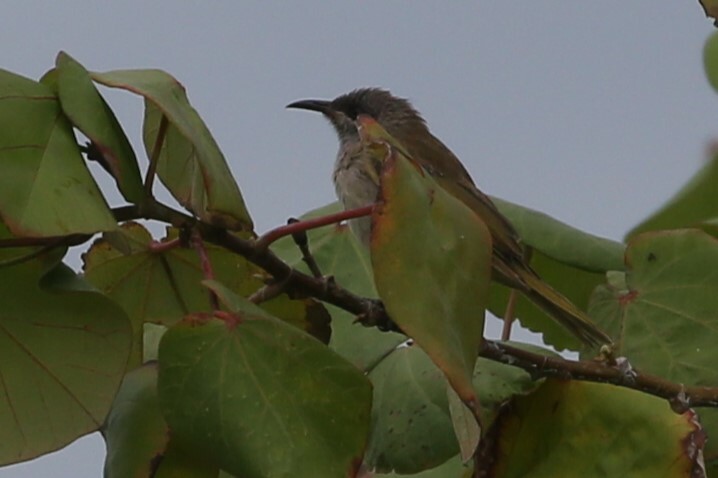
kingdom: Animalia
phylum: Chordata
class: Aves
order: Passeriformes
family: Meliphagidae
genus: Lichmera
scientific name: Lichmera indistincta
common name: Brown honeyeater
